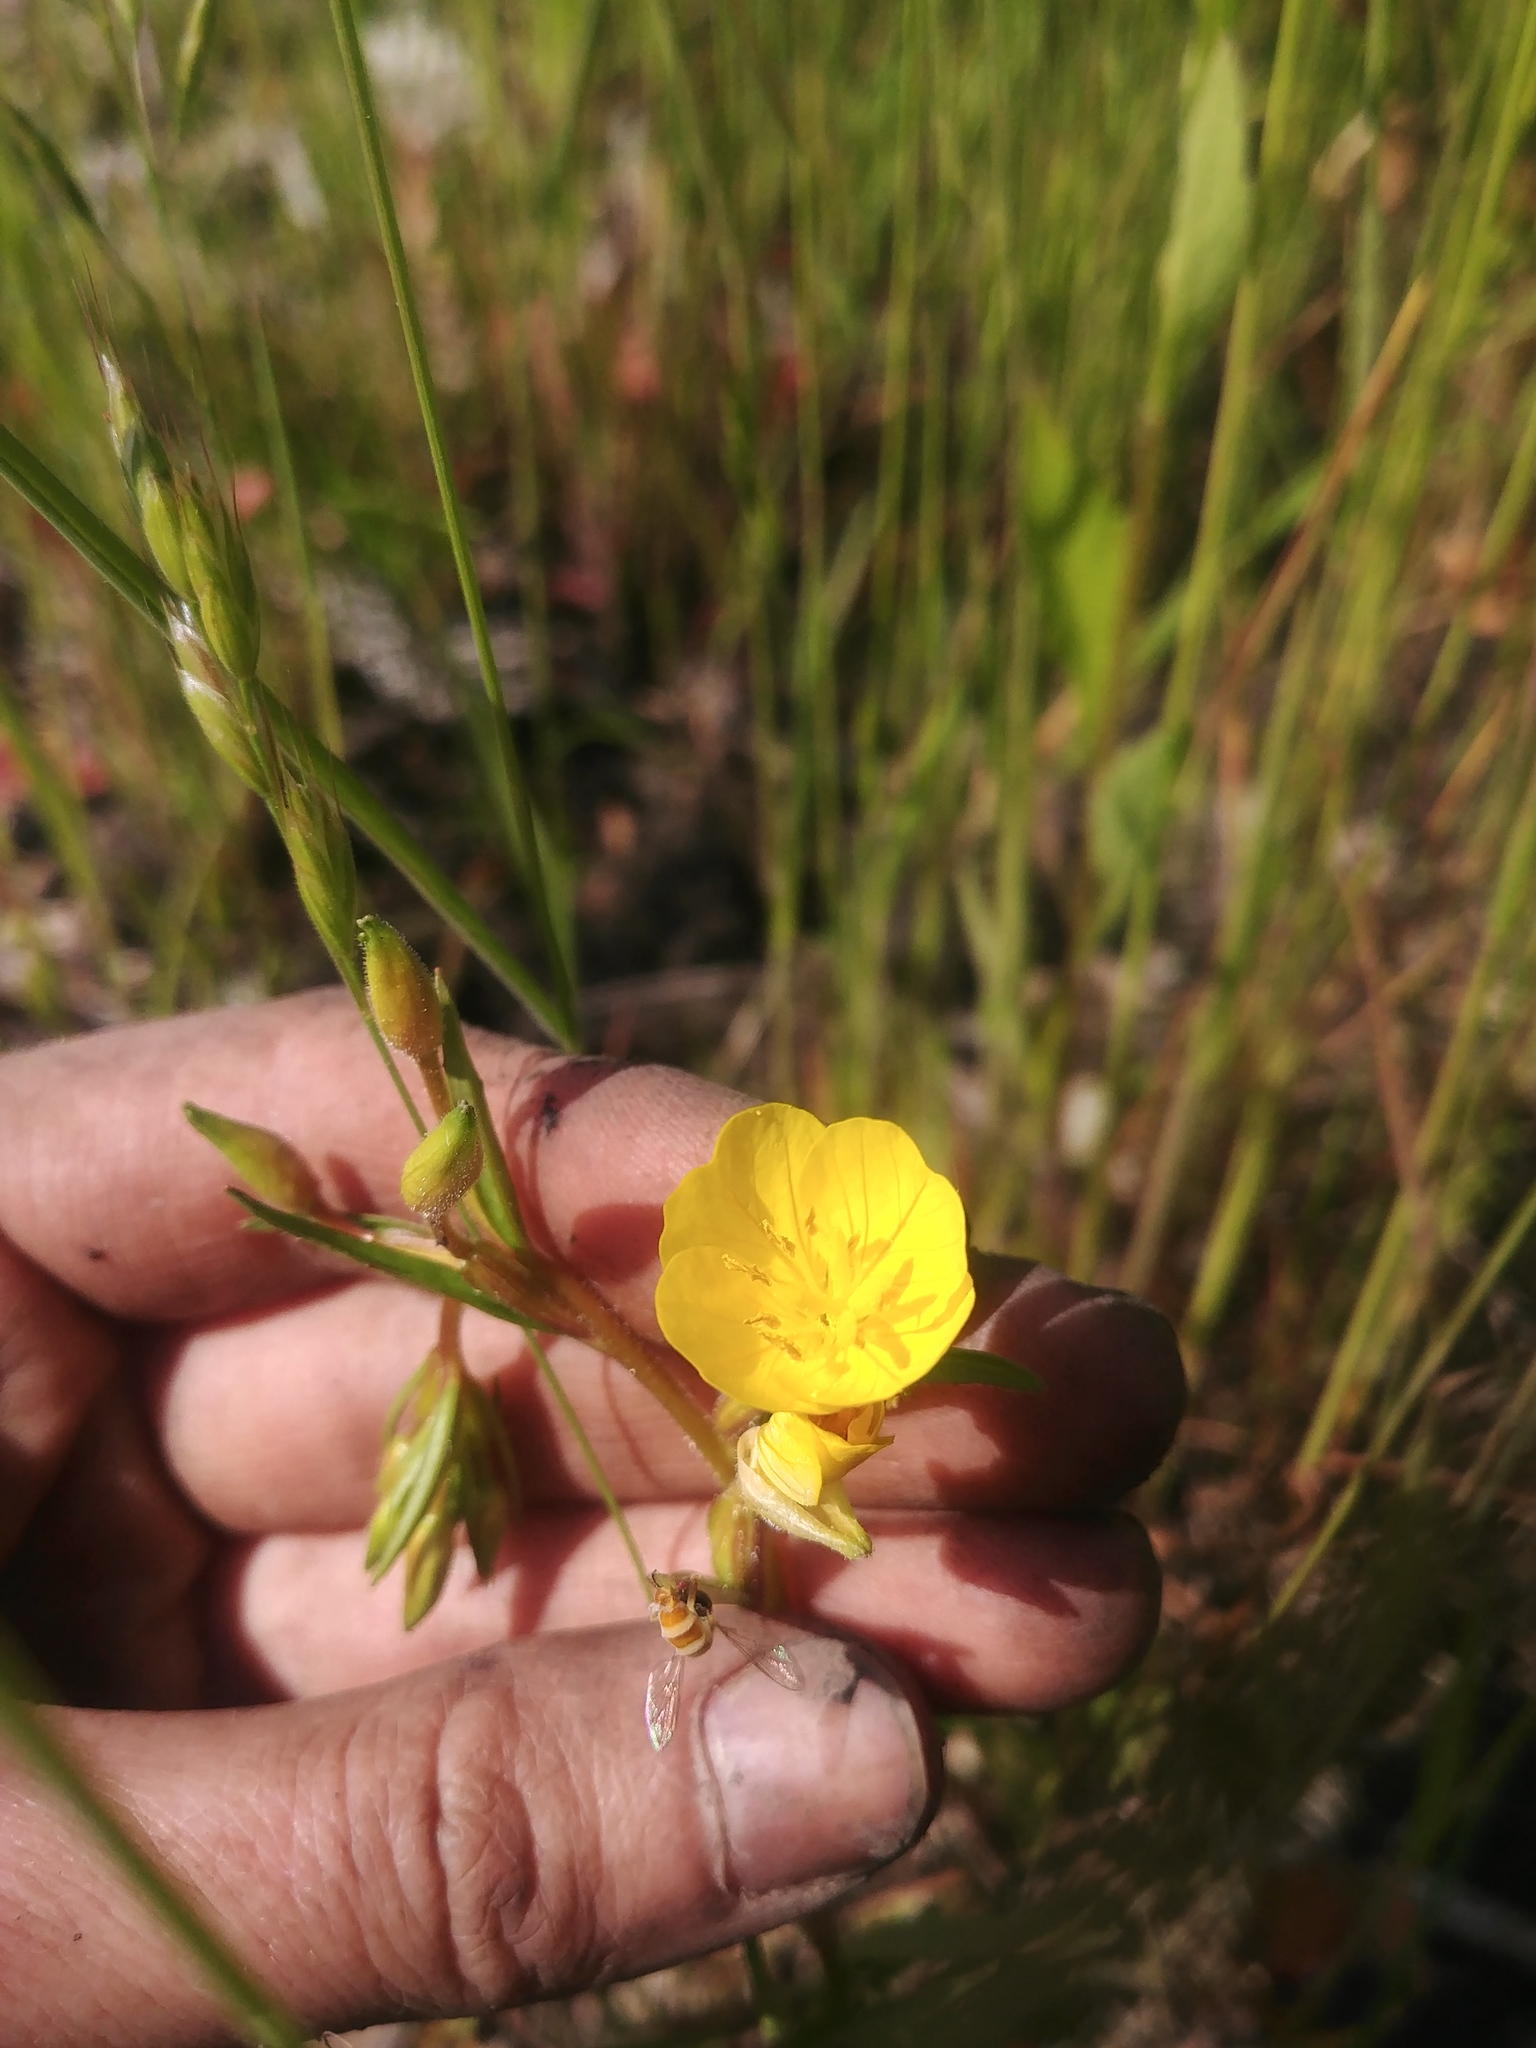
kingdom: Plantae
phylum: Tracheophyta
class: Magnoliopsida
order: Myrtales
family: Onagraceae
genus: Oenothera
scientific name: Oenothera perennis
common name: Small sundrops
